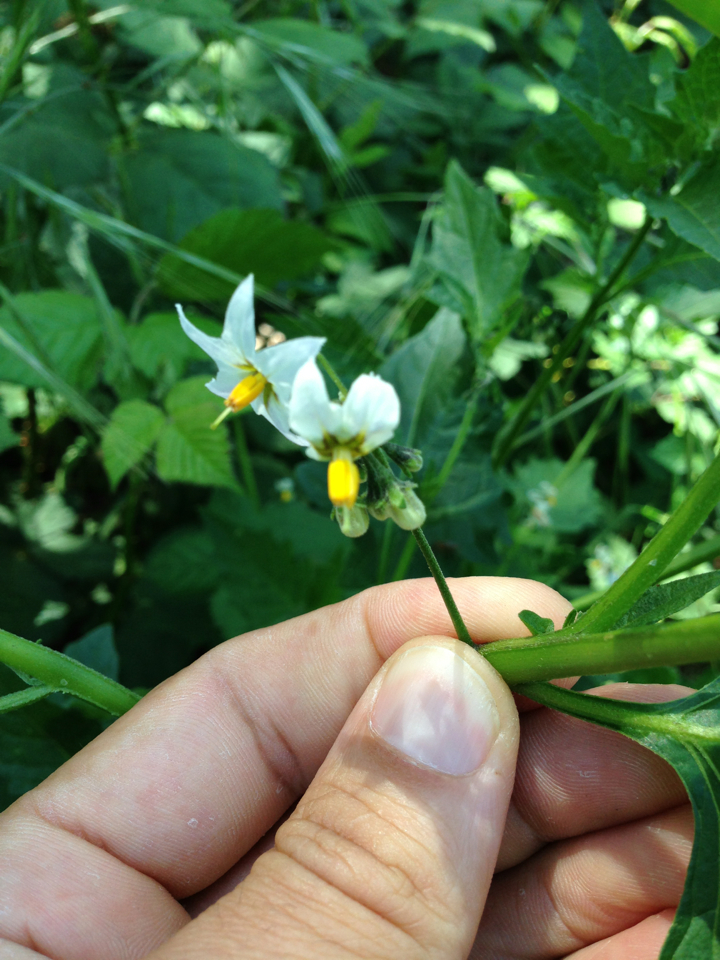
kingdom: Plantae
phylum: Tracheophyta
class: Magnoliopsida
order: Solanales
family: Solanaceae
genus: Solanum
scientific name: Solanum furcatum
